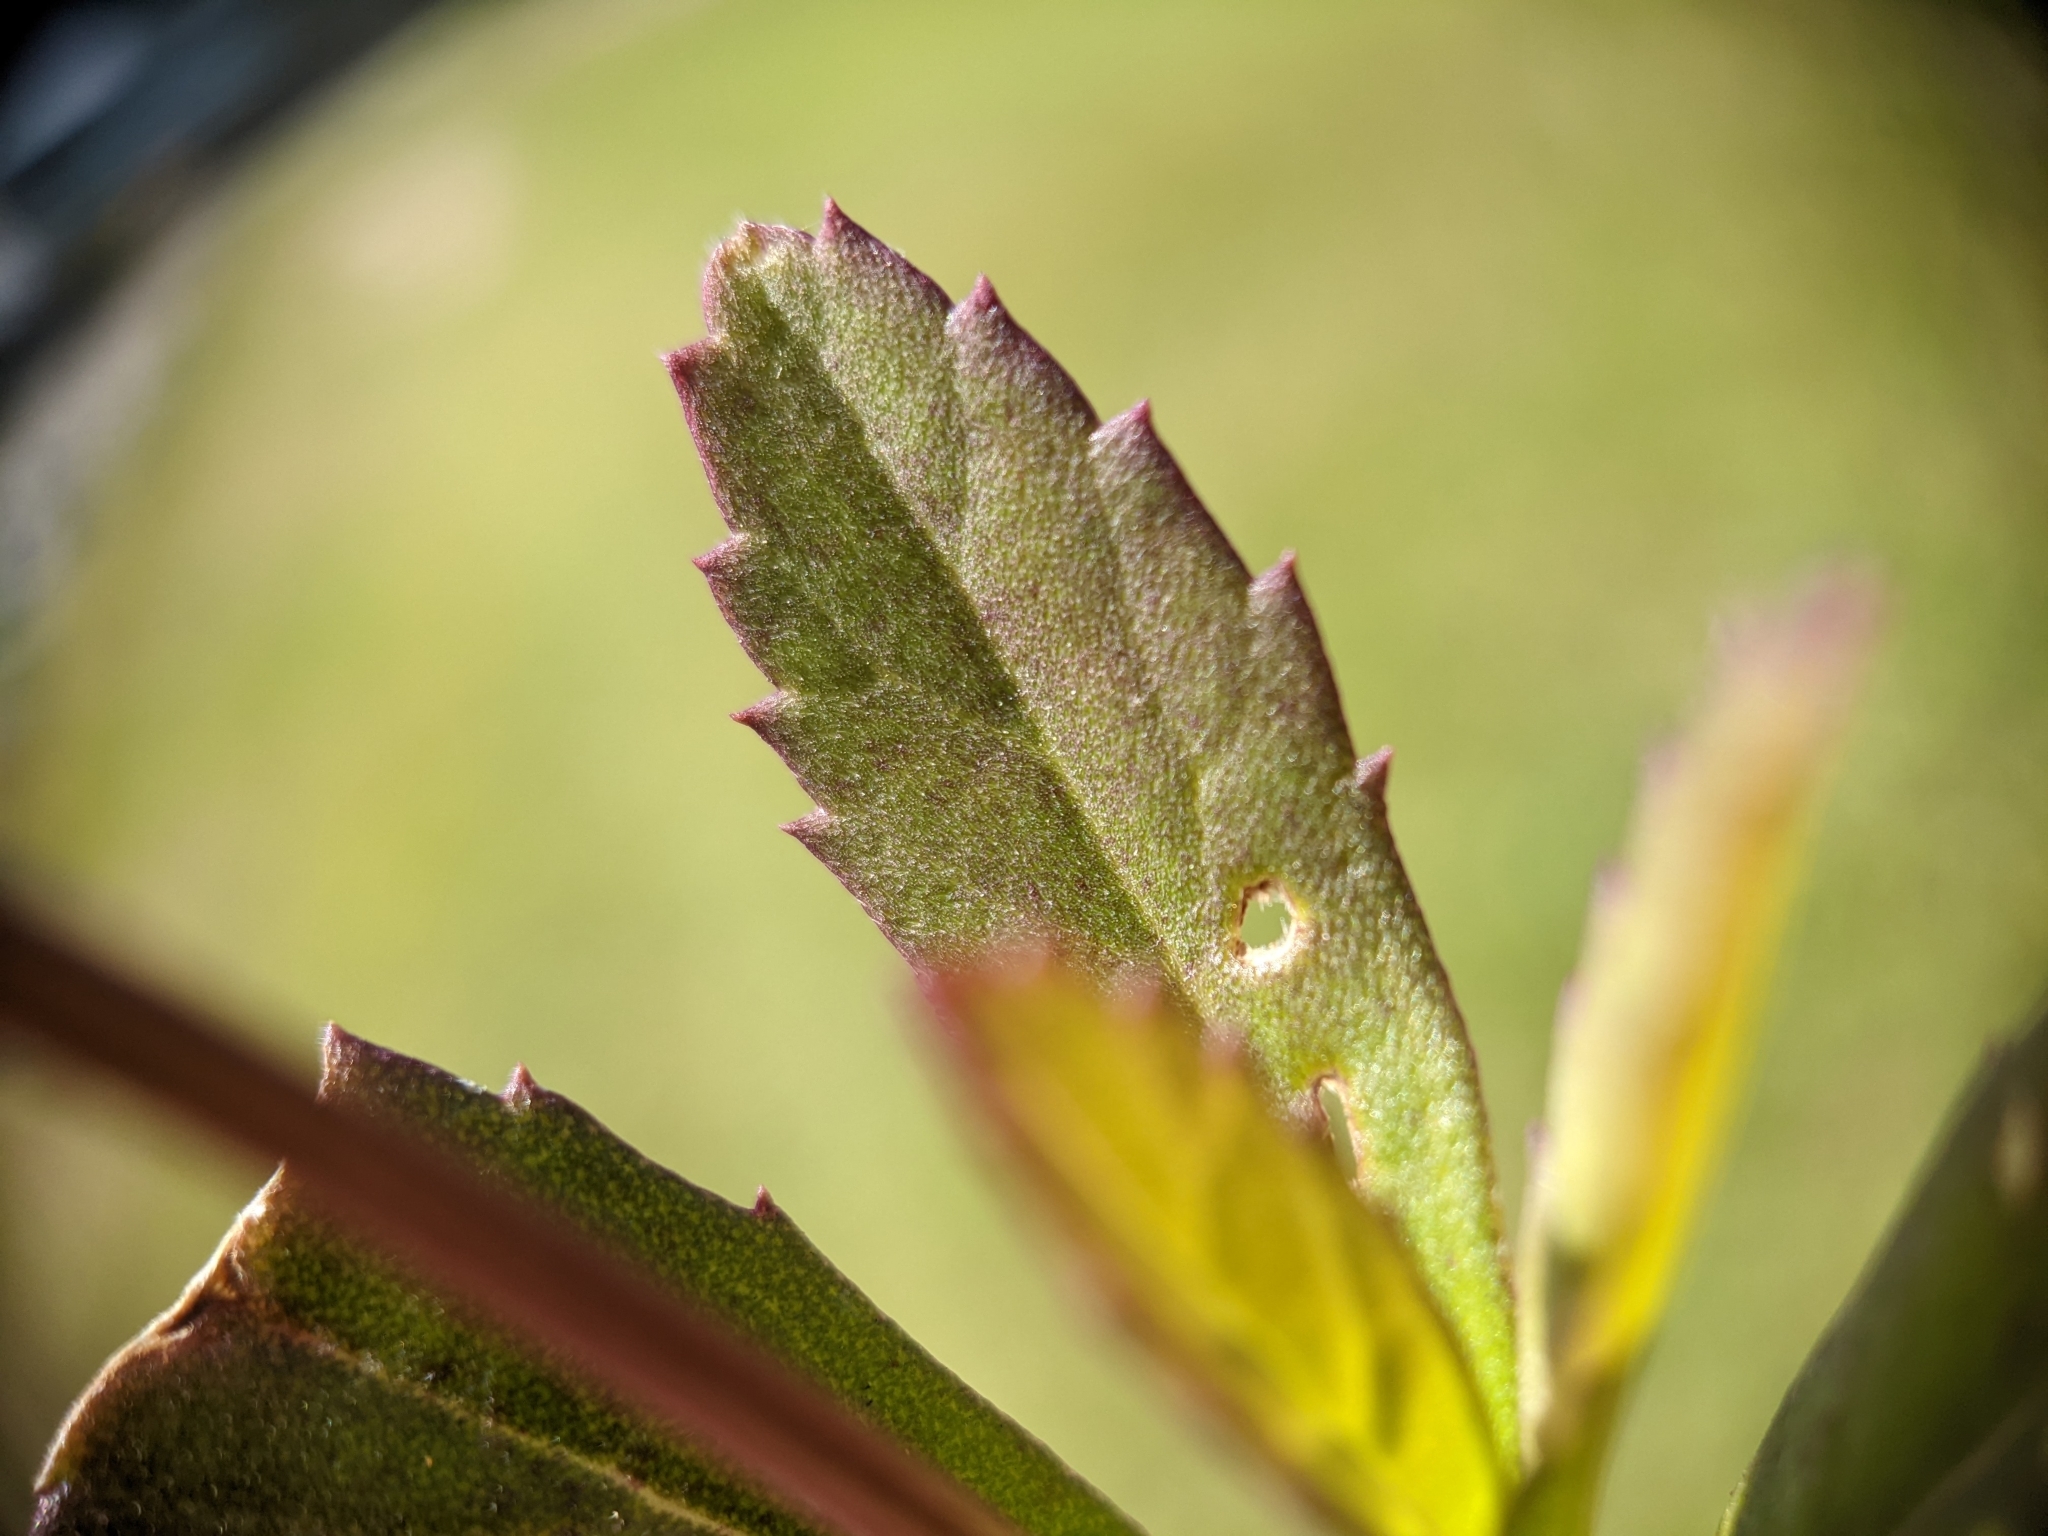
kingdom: Plantae
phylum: Tracheophyta
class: Magnoliopsida
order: Lamiales
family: Verbenaceae
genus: Phyla
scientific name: Phyla nodiflora
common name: Frogfruit
